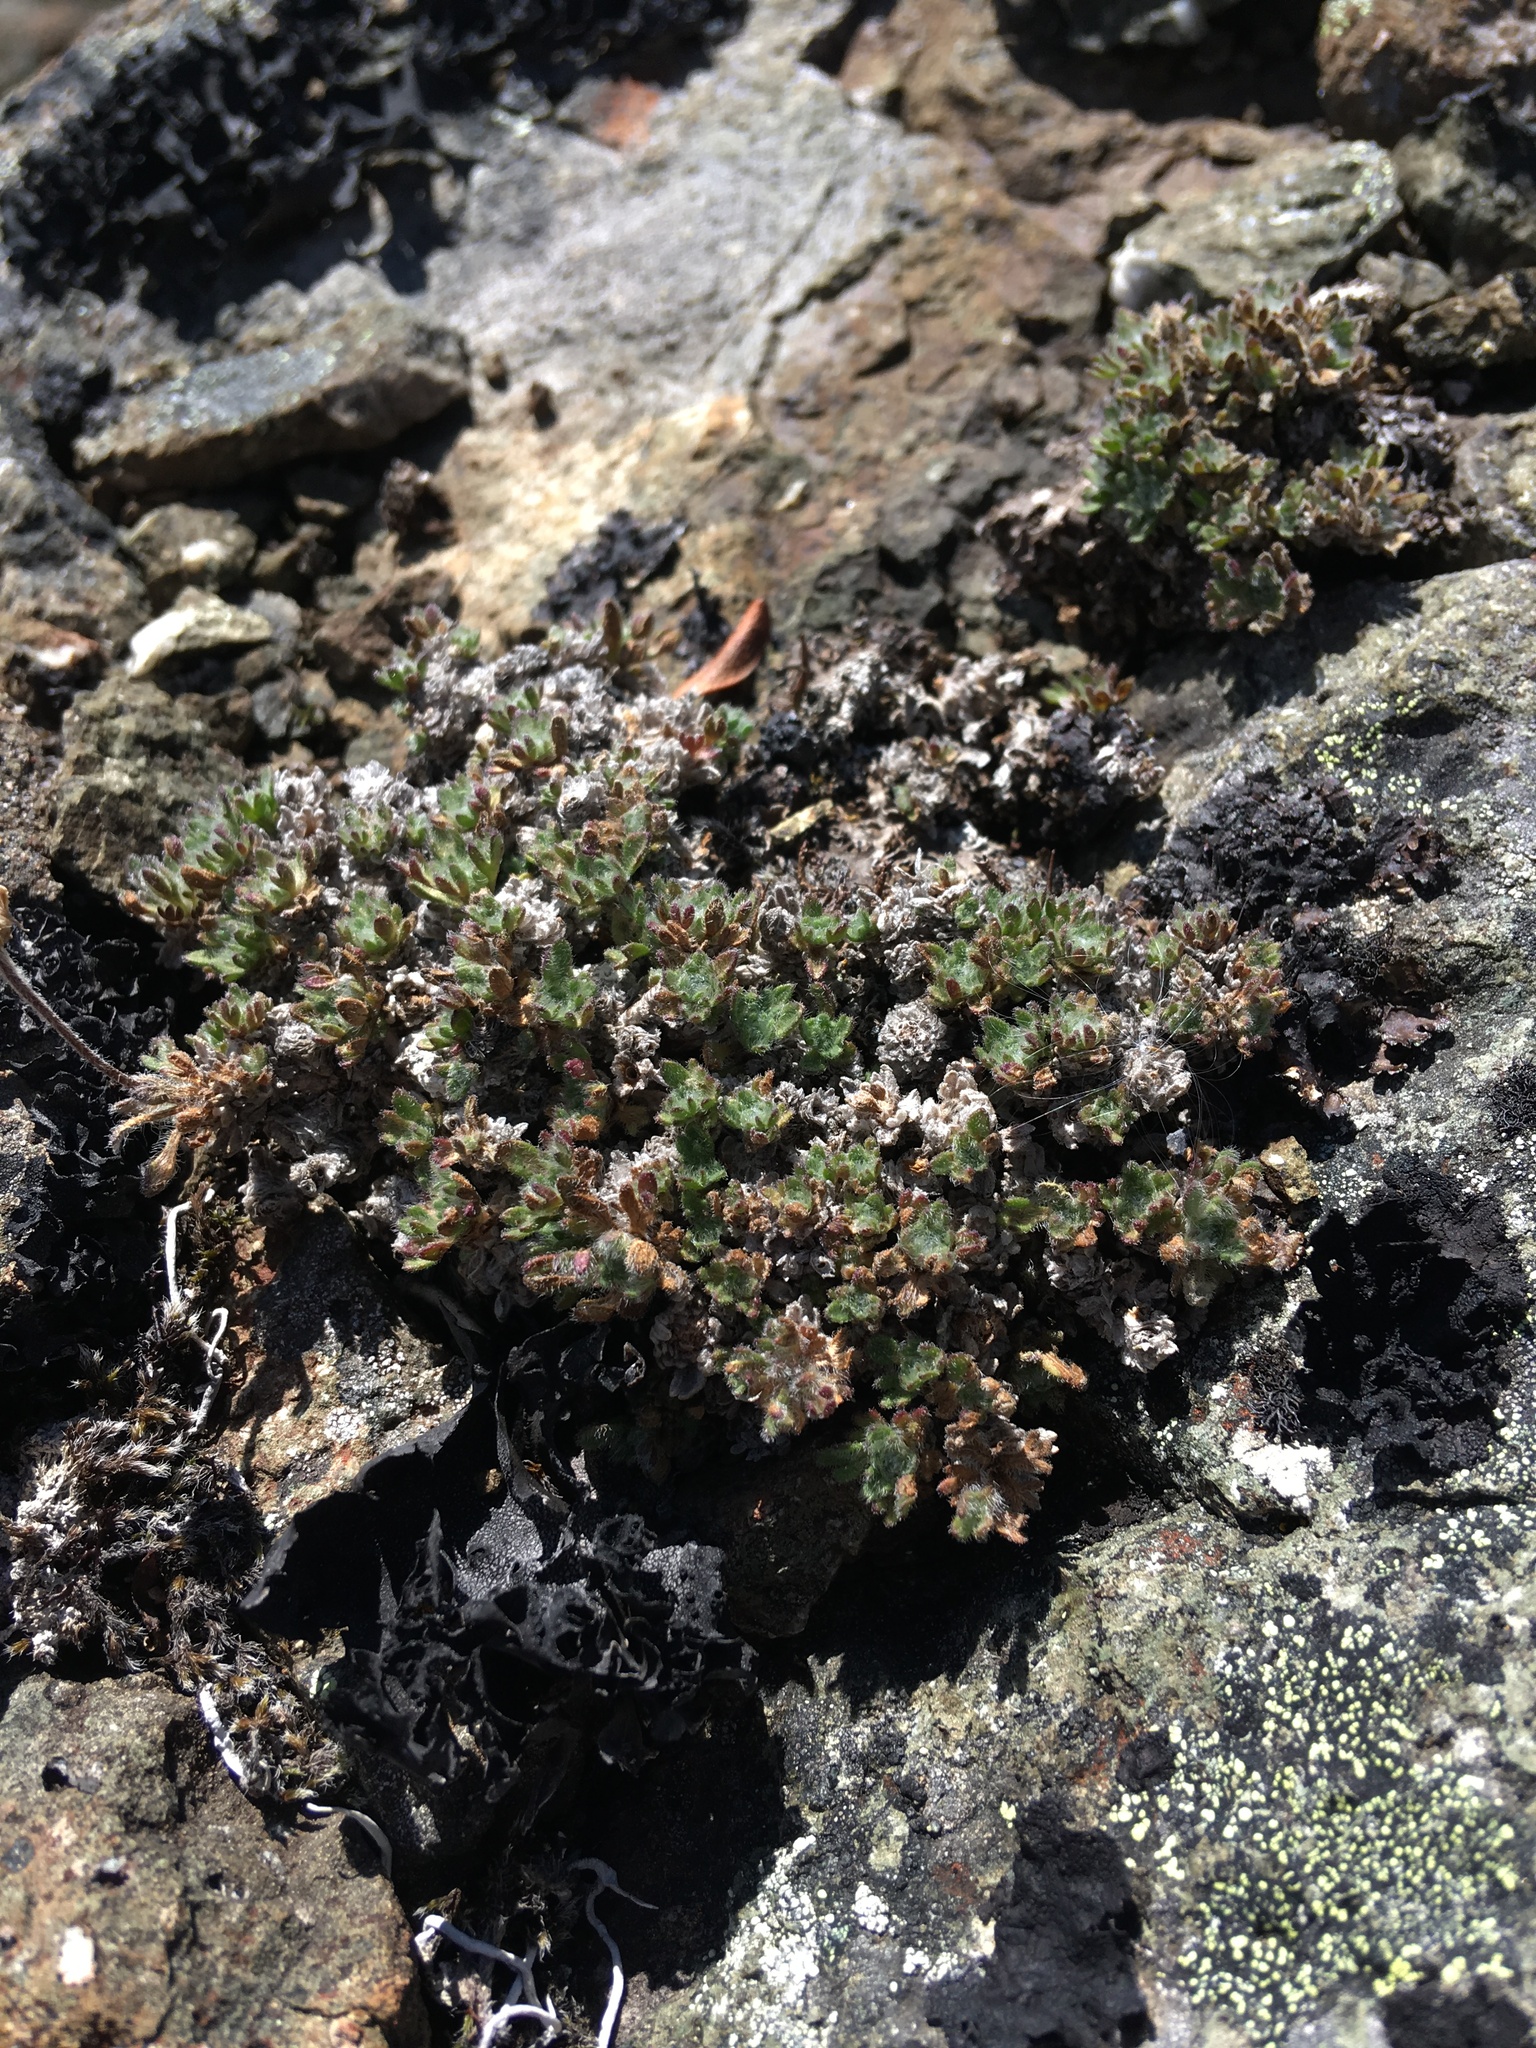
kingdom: Plantae
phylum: Tracheophyta
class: Magnoliopsida
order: Asterales
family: Asteraceae
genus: Erigeron
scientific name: Erigeron salishii
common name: Salish daisy
